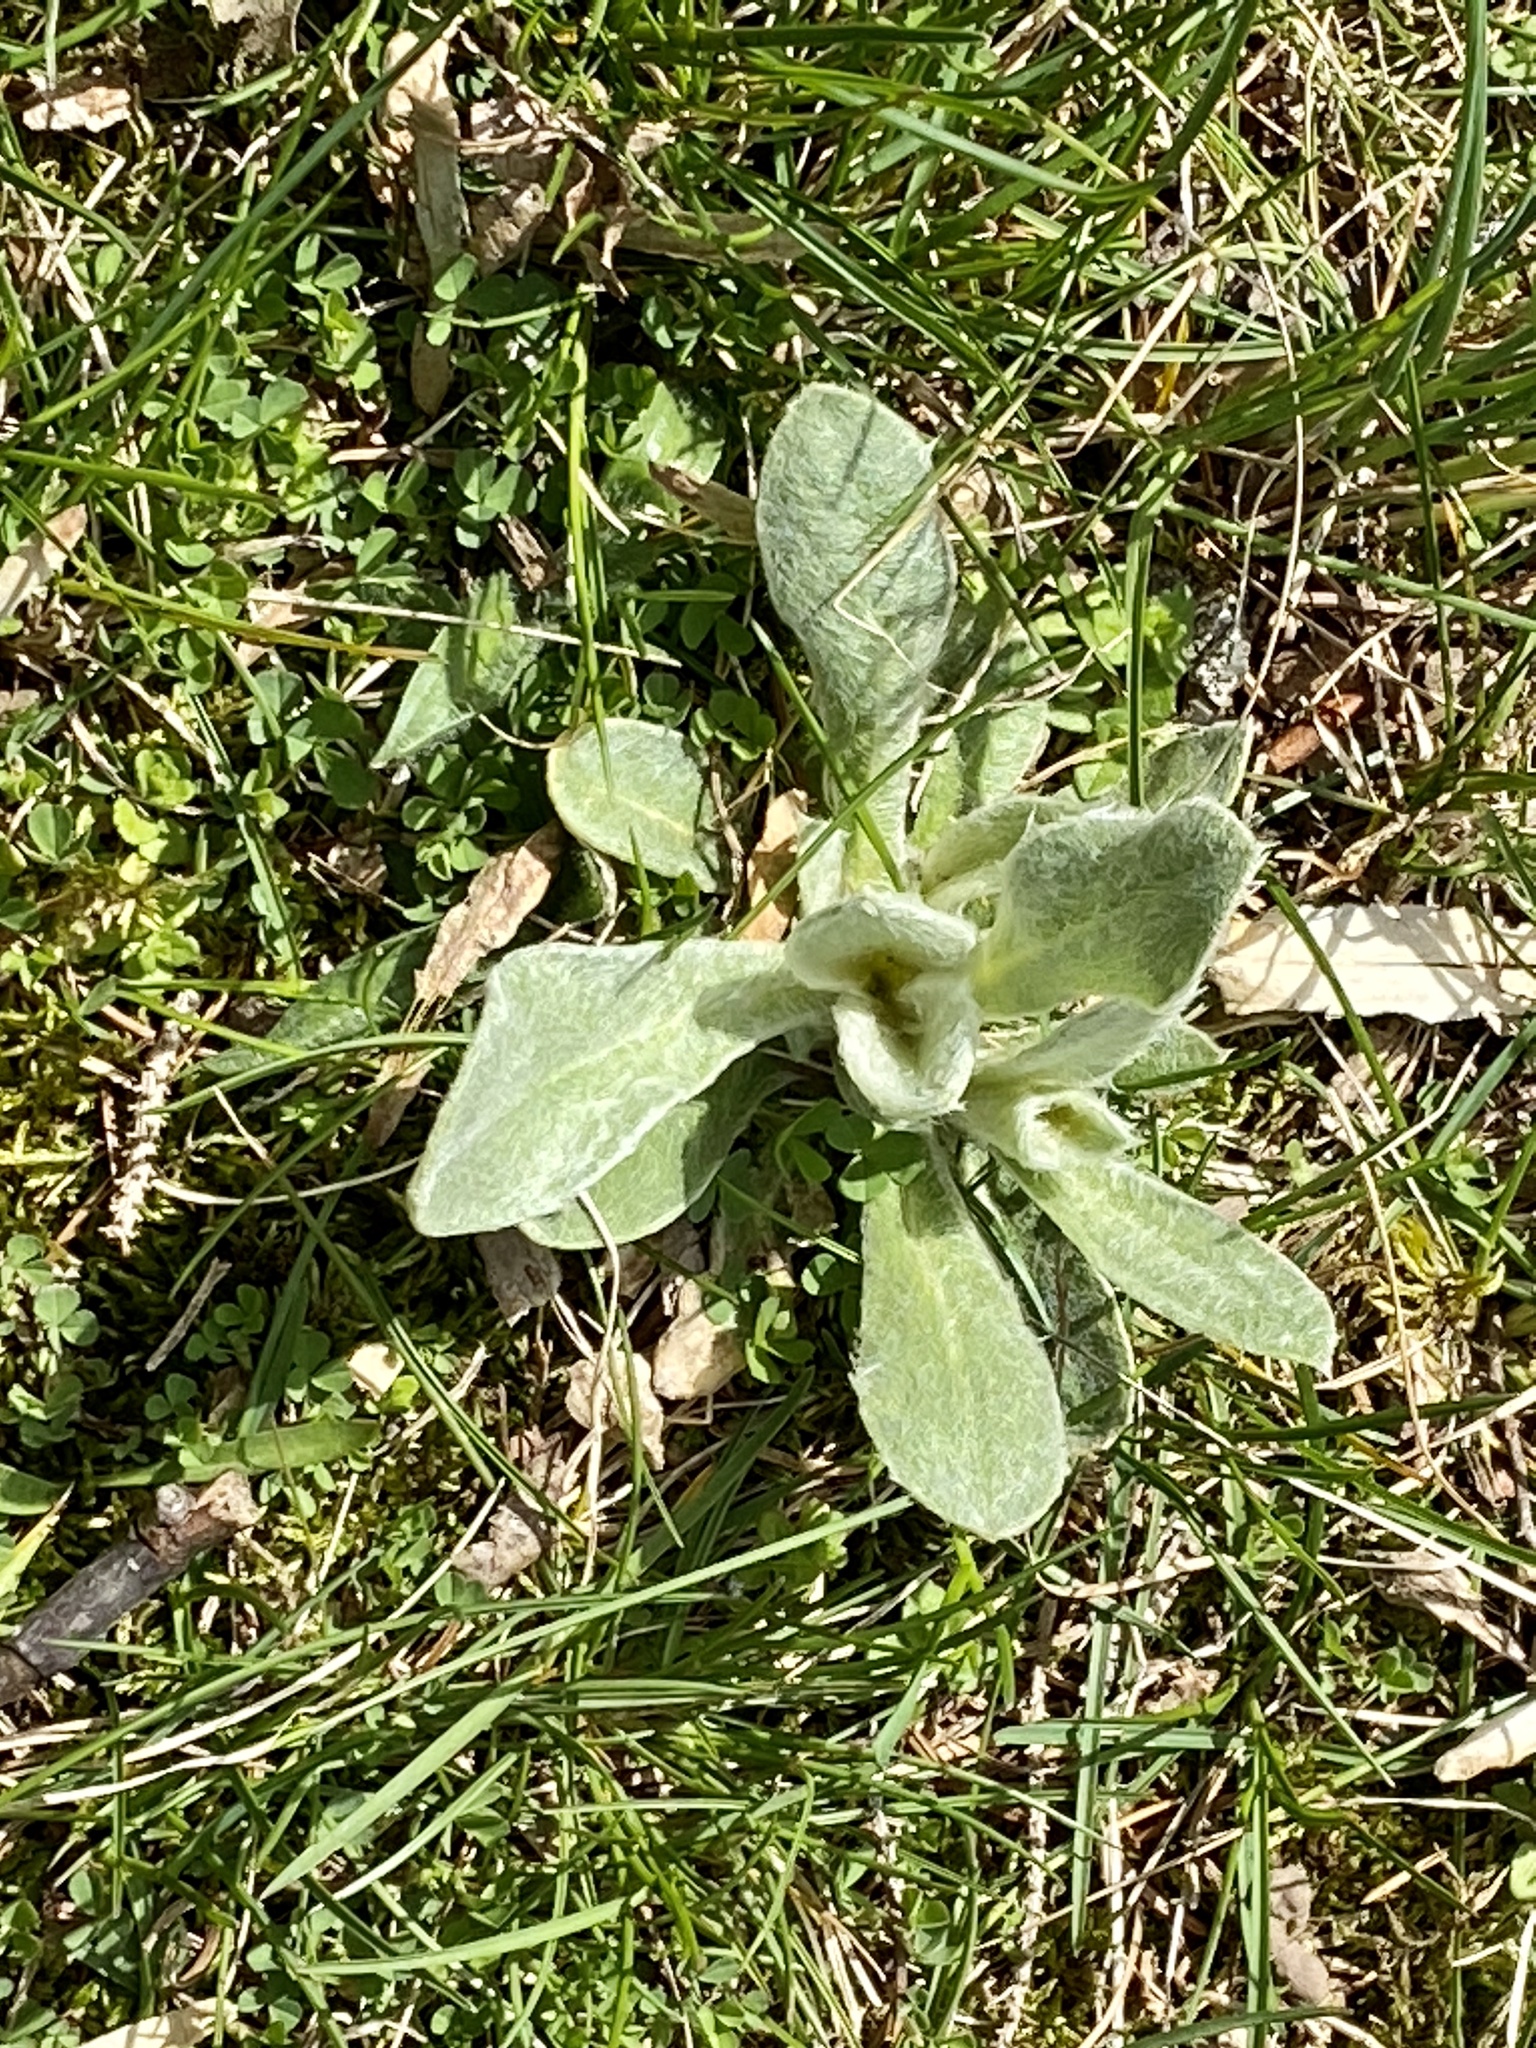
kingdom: Plantae
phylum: Tracheophyta
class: Magnoliopsida
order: Caryophyllales
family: Caryophyllaceae
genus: Silene
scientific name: Silene coronaria
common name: Rose campion
